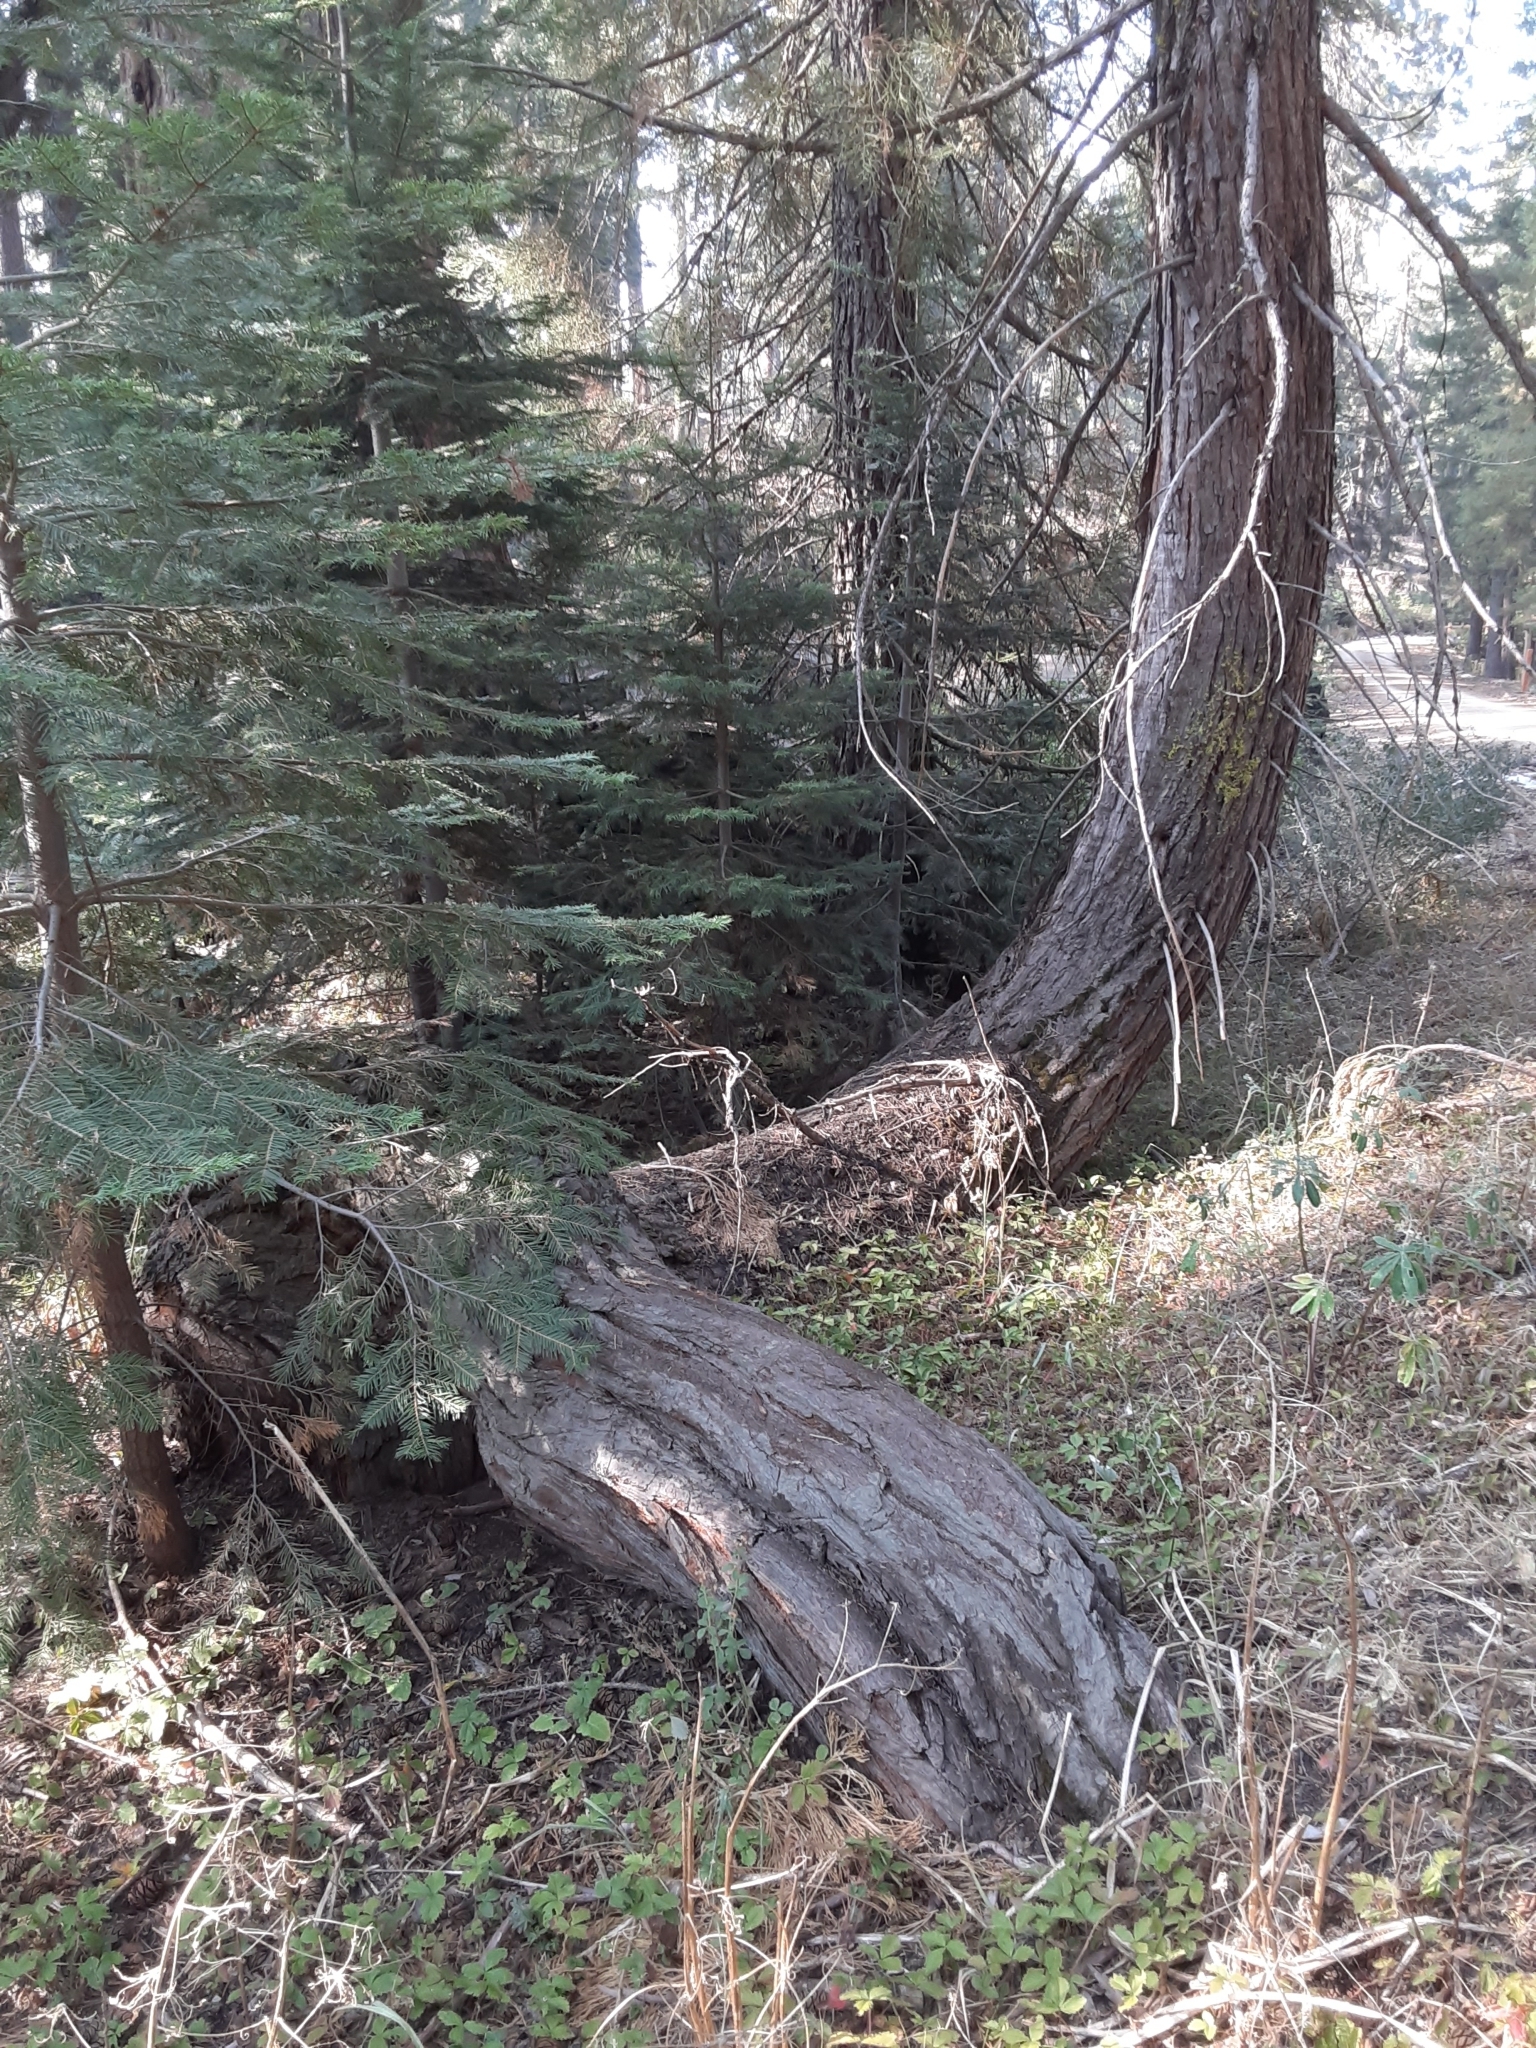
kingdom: Plantae
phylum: Tracheophyta
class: Pinopsida
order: Pinales
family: Cupressaceae
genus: Sequoiadendron
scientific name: Sequoiadendron giganteum
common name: Wellingtonia
